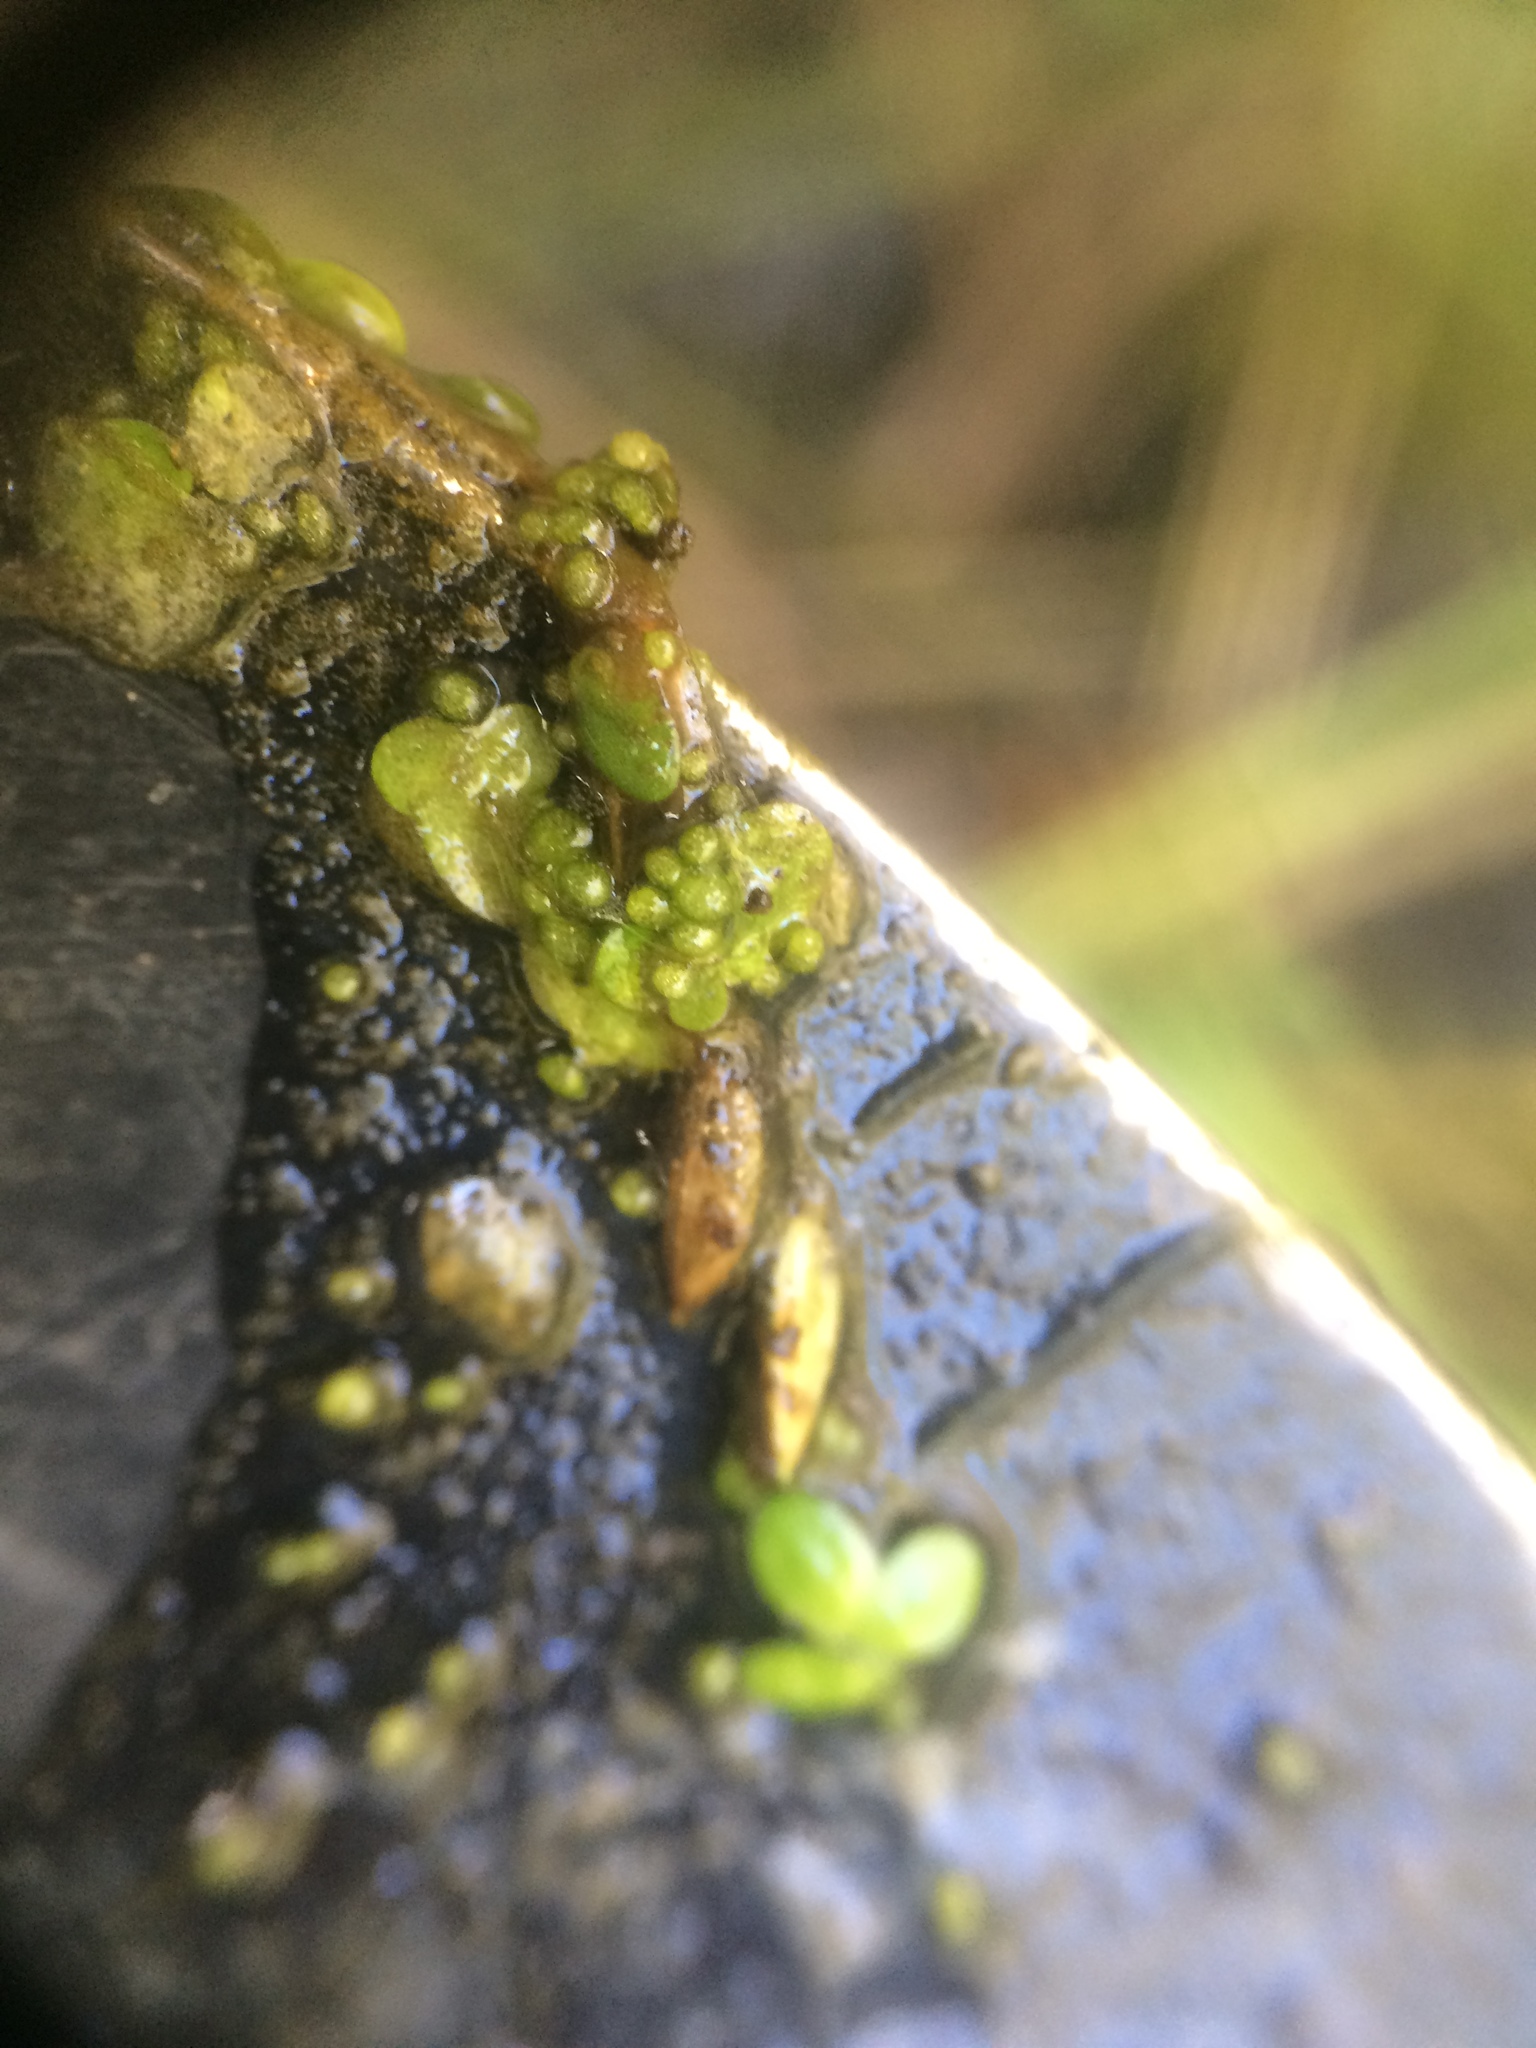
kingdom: Plantae
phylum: Tracheophyta
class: Liliopsida
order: Alismatales
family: Araceae
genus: Wolffia
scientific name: Wolffia columbiana
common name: Columbia watermeal
